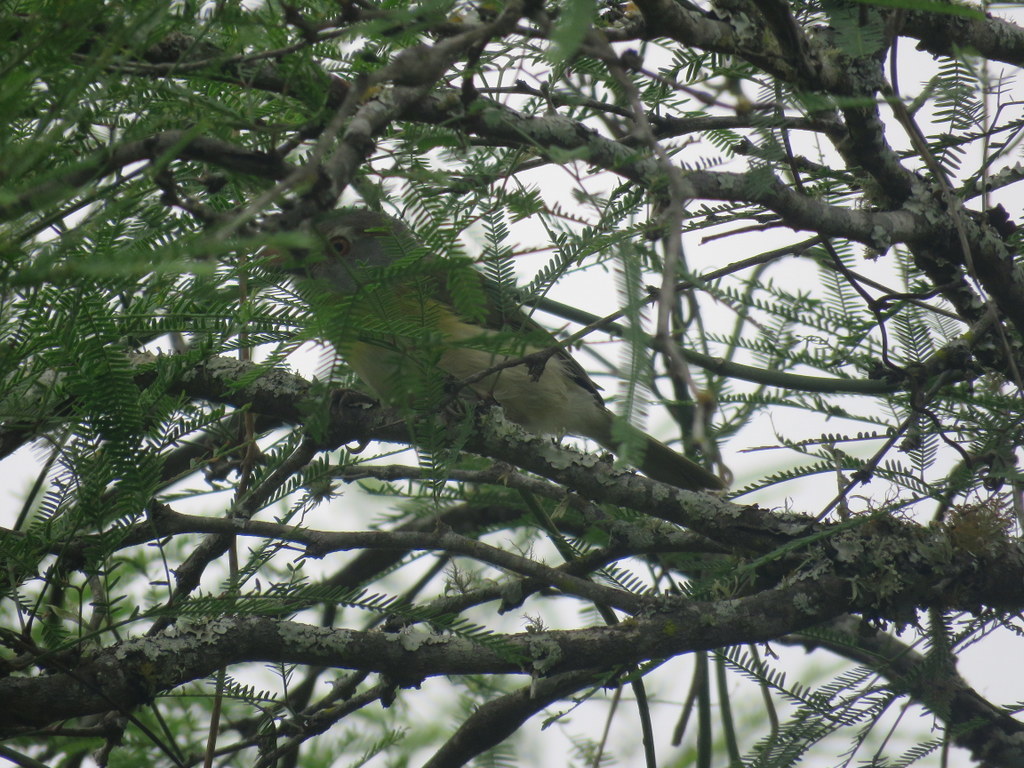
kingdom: Animalia
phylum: Chordata
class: Aves
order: Passeriformes
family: Vireonidae
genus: Cyclarhis
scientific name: Cyclarhis gujanensis
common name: Rufous-browed peppershrike
